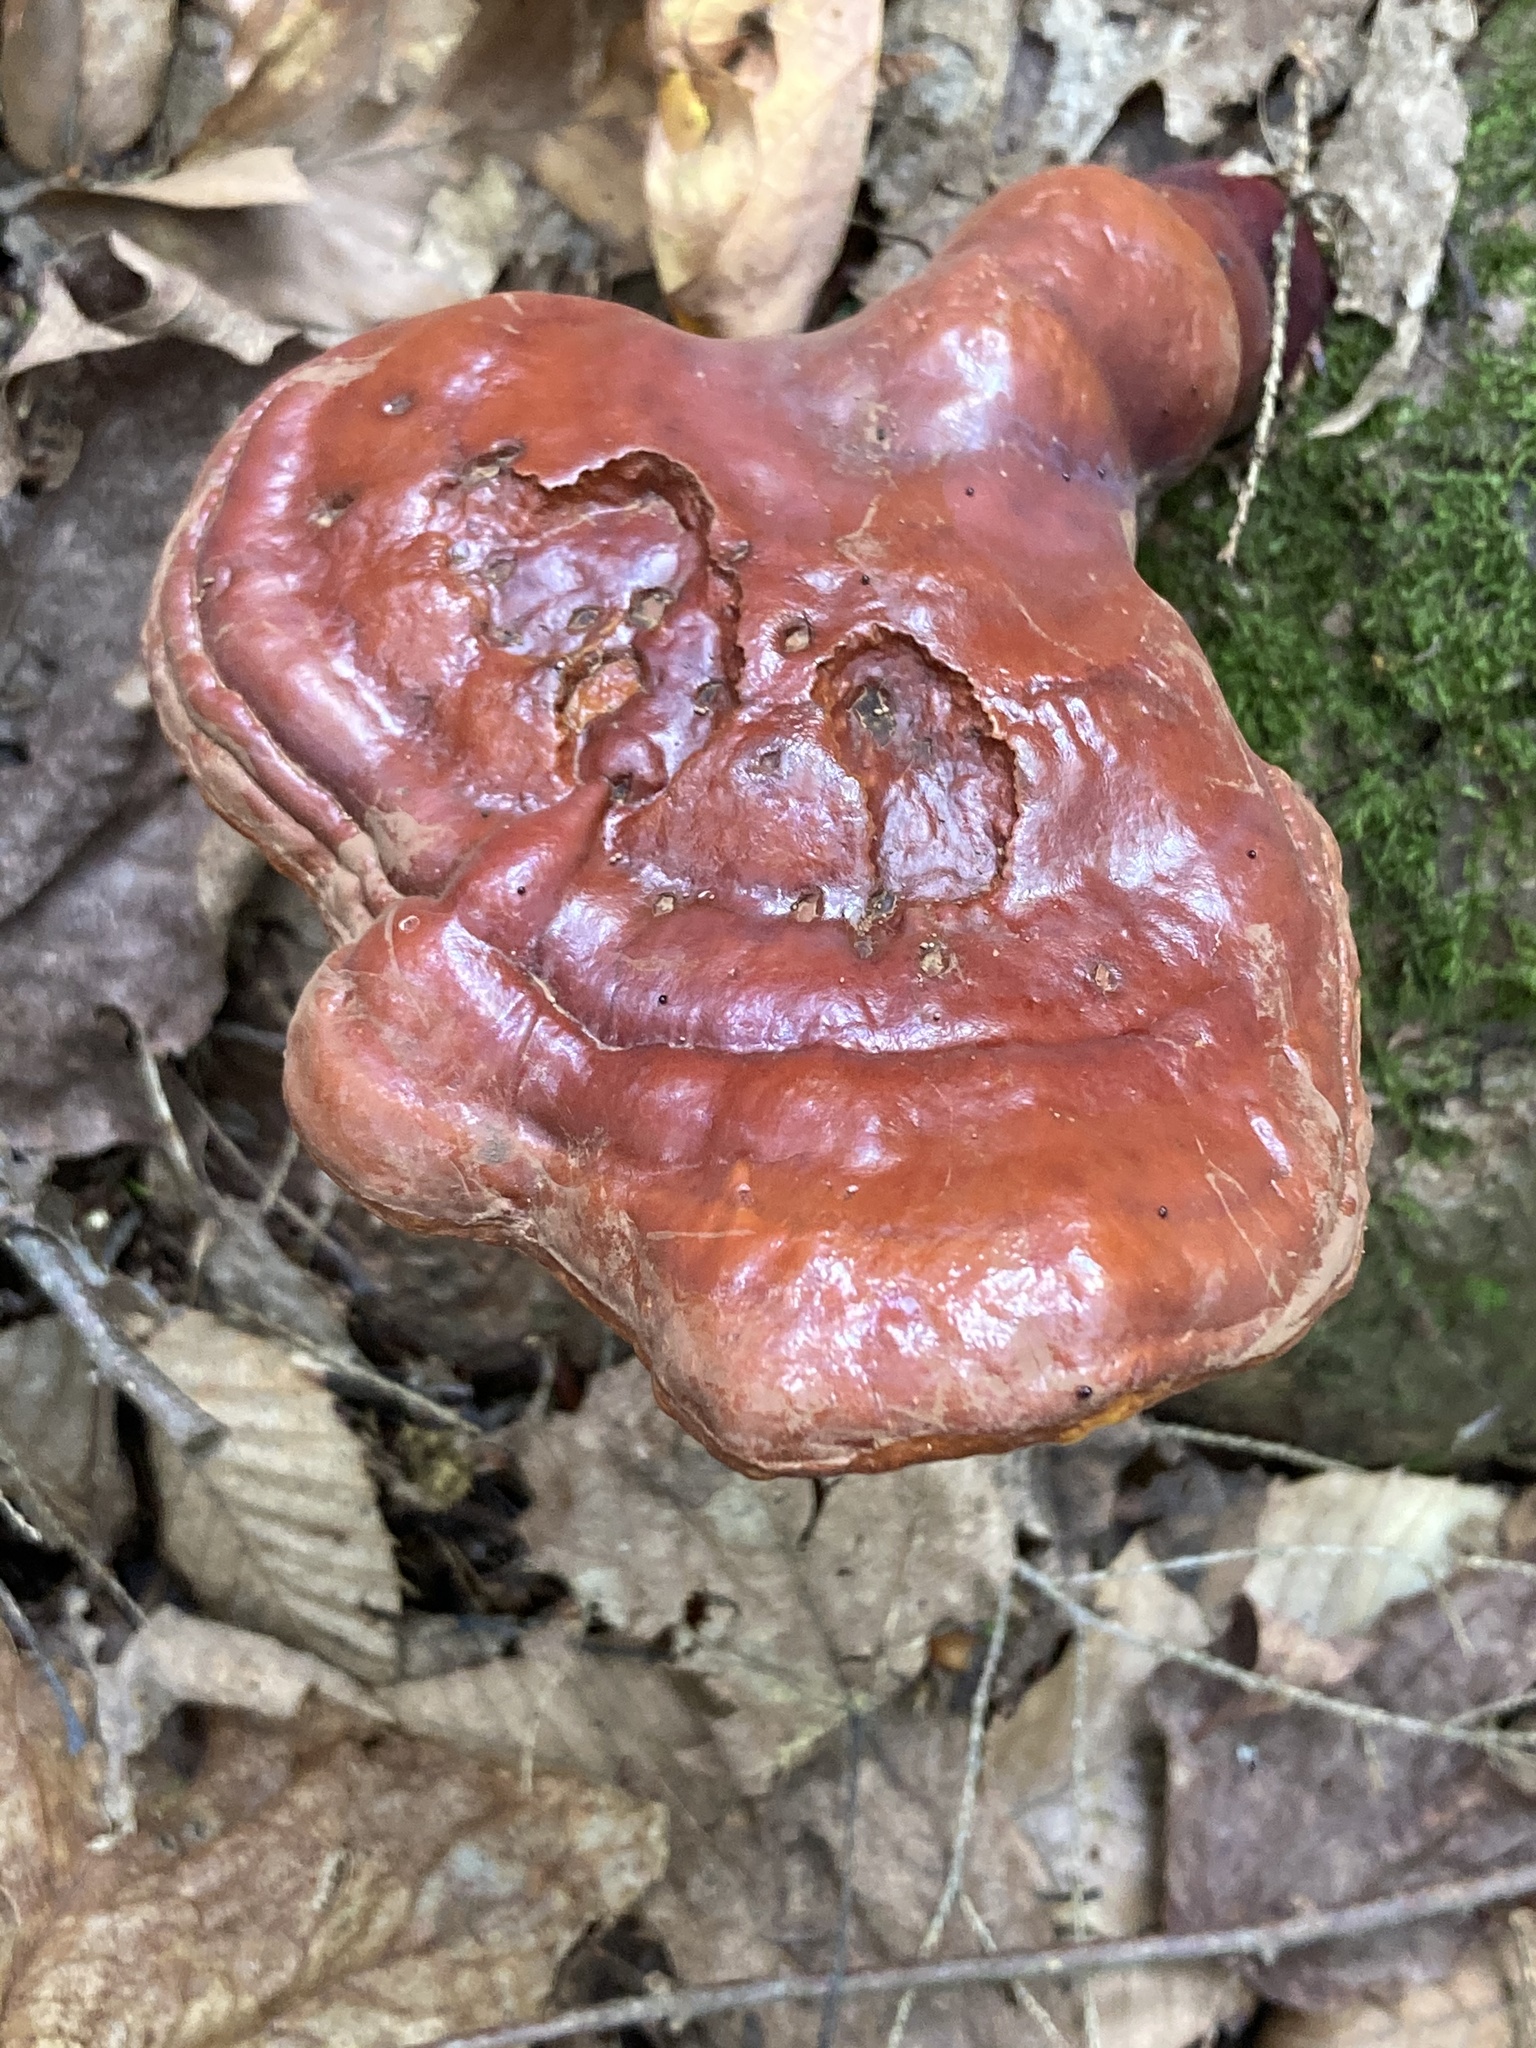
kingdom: Fungi
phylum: Basidiomycota
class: Agaricomycetes
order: Polyporales
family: Polyporaceae
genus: Ganoderma
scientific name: Ganoderma tsugae
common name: Hemlock varnish shelf
